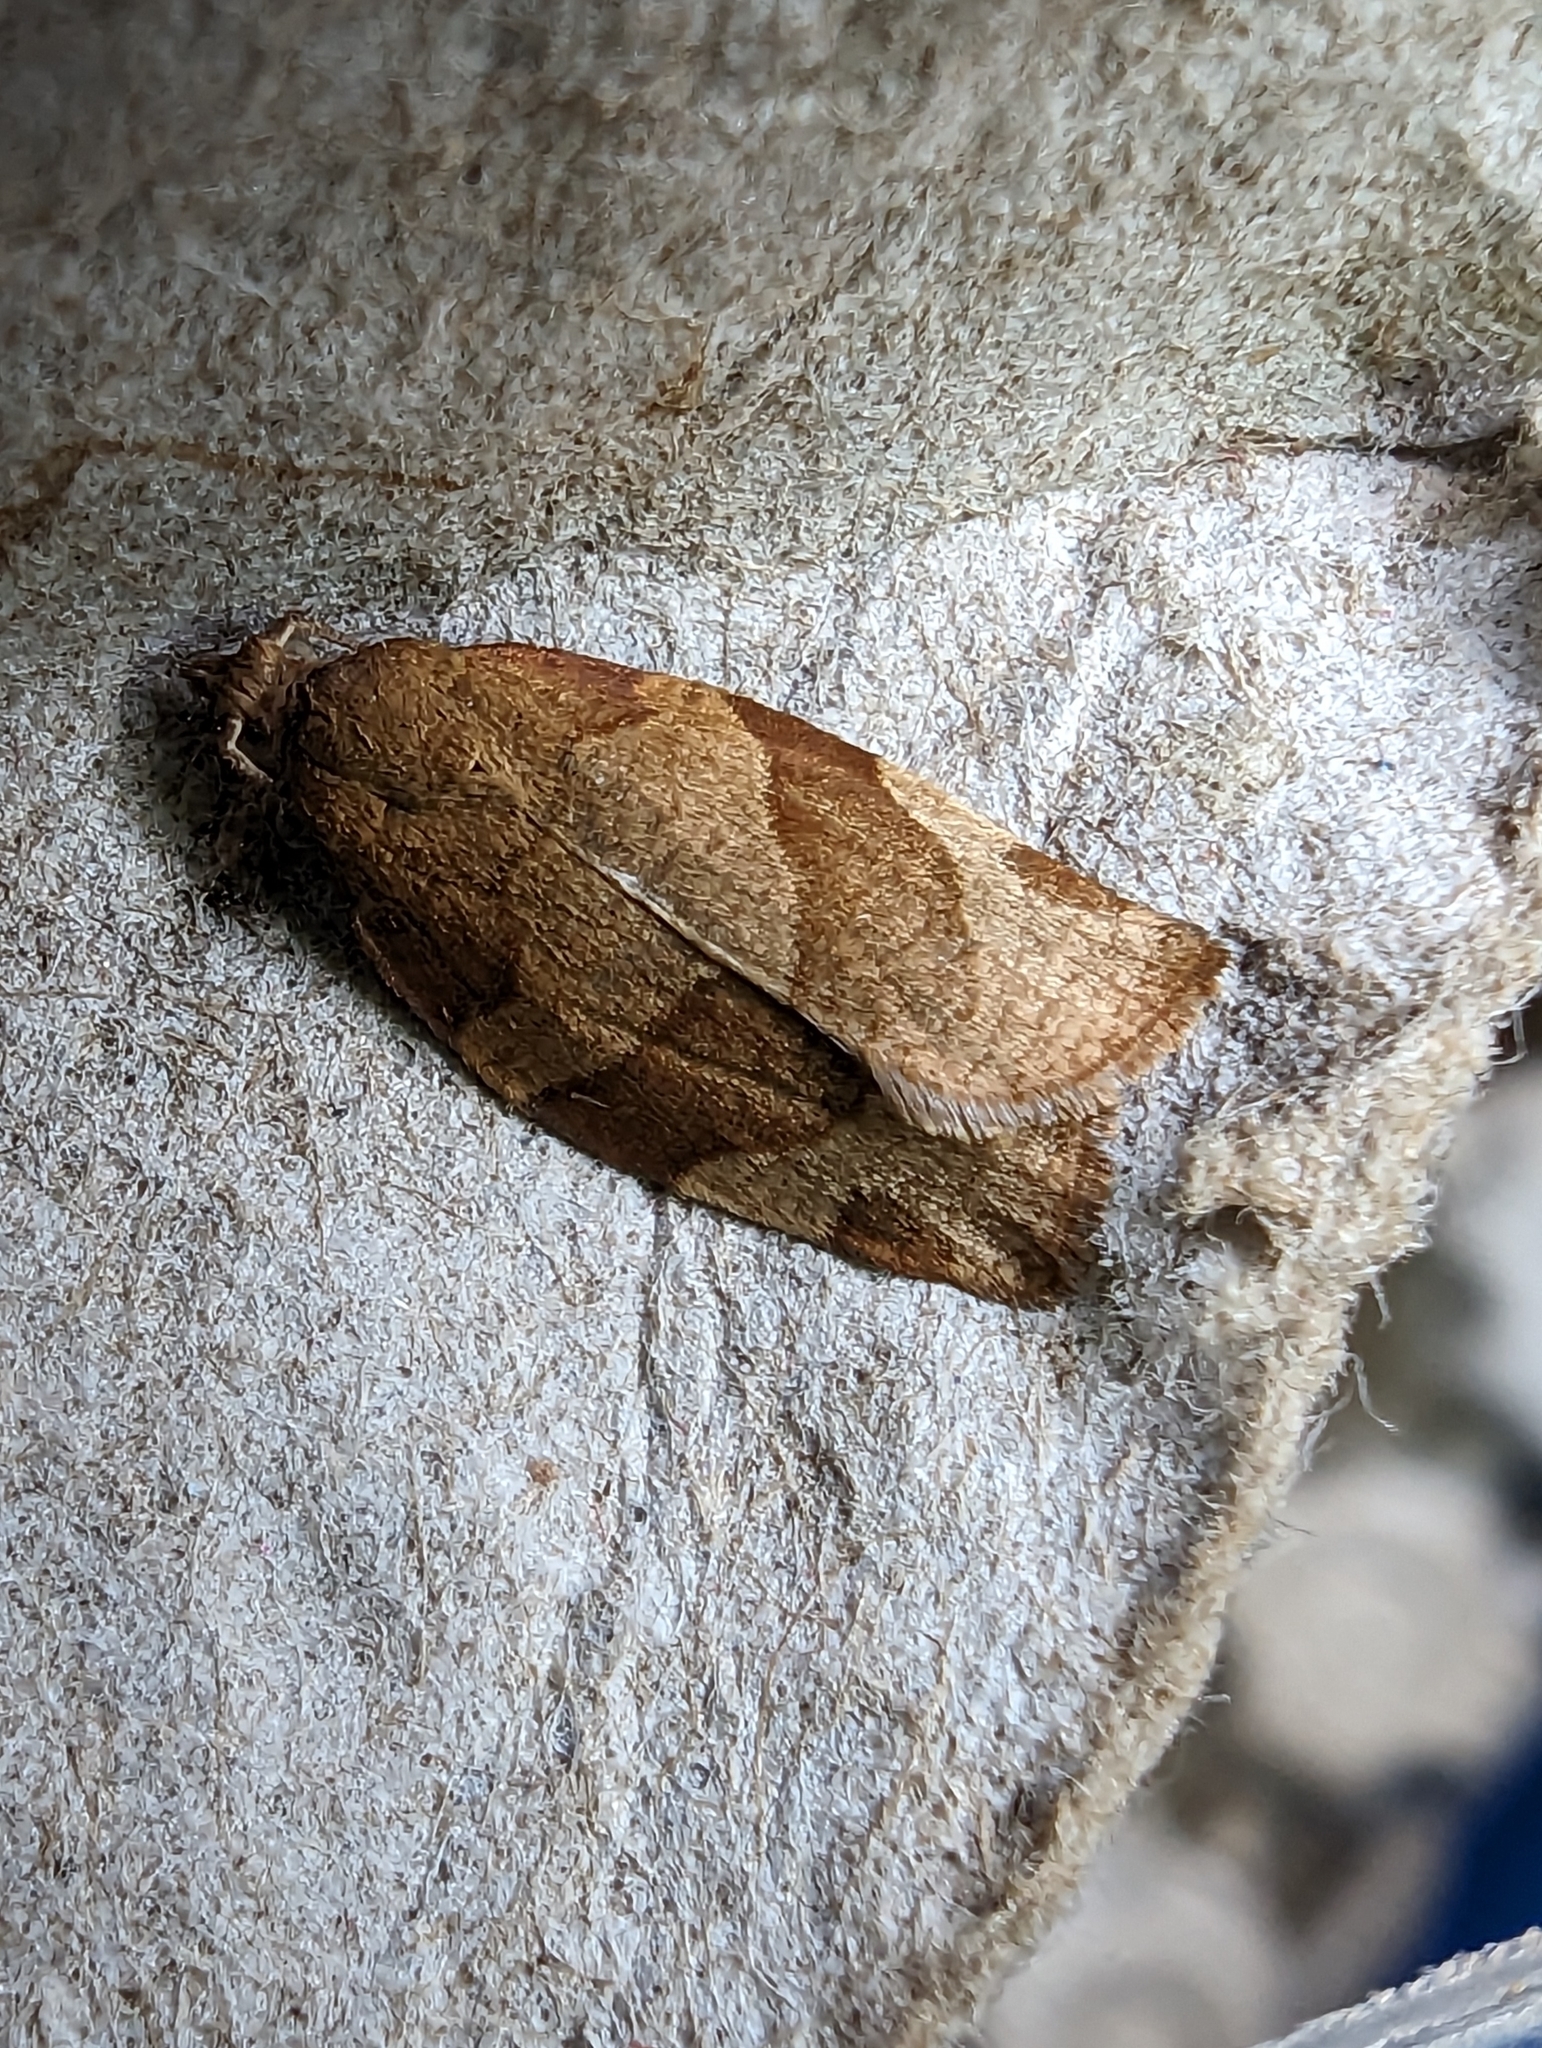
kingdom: Animalia
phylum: Arthropoda
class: Insecta
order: Lepidoptera
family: Tortricidae
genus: Pandemis
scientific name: Pandemis cerasana
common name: Barred fruit-tree tortrix
